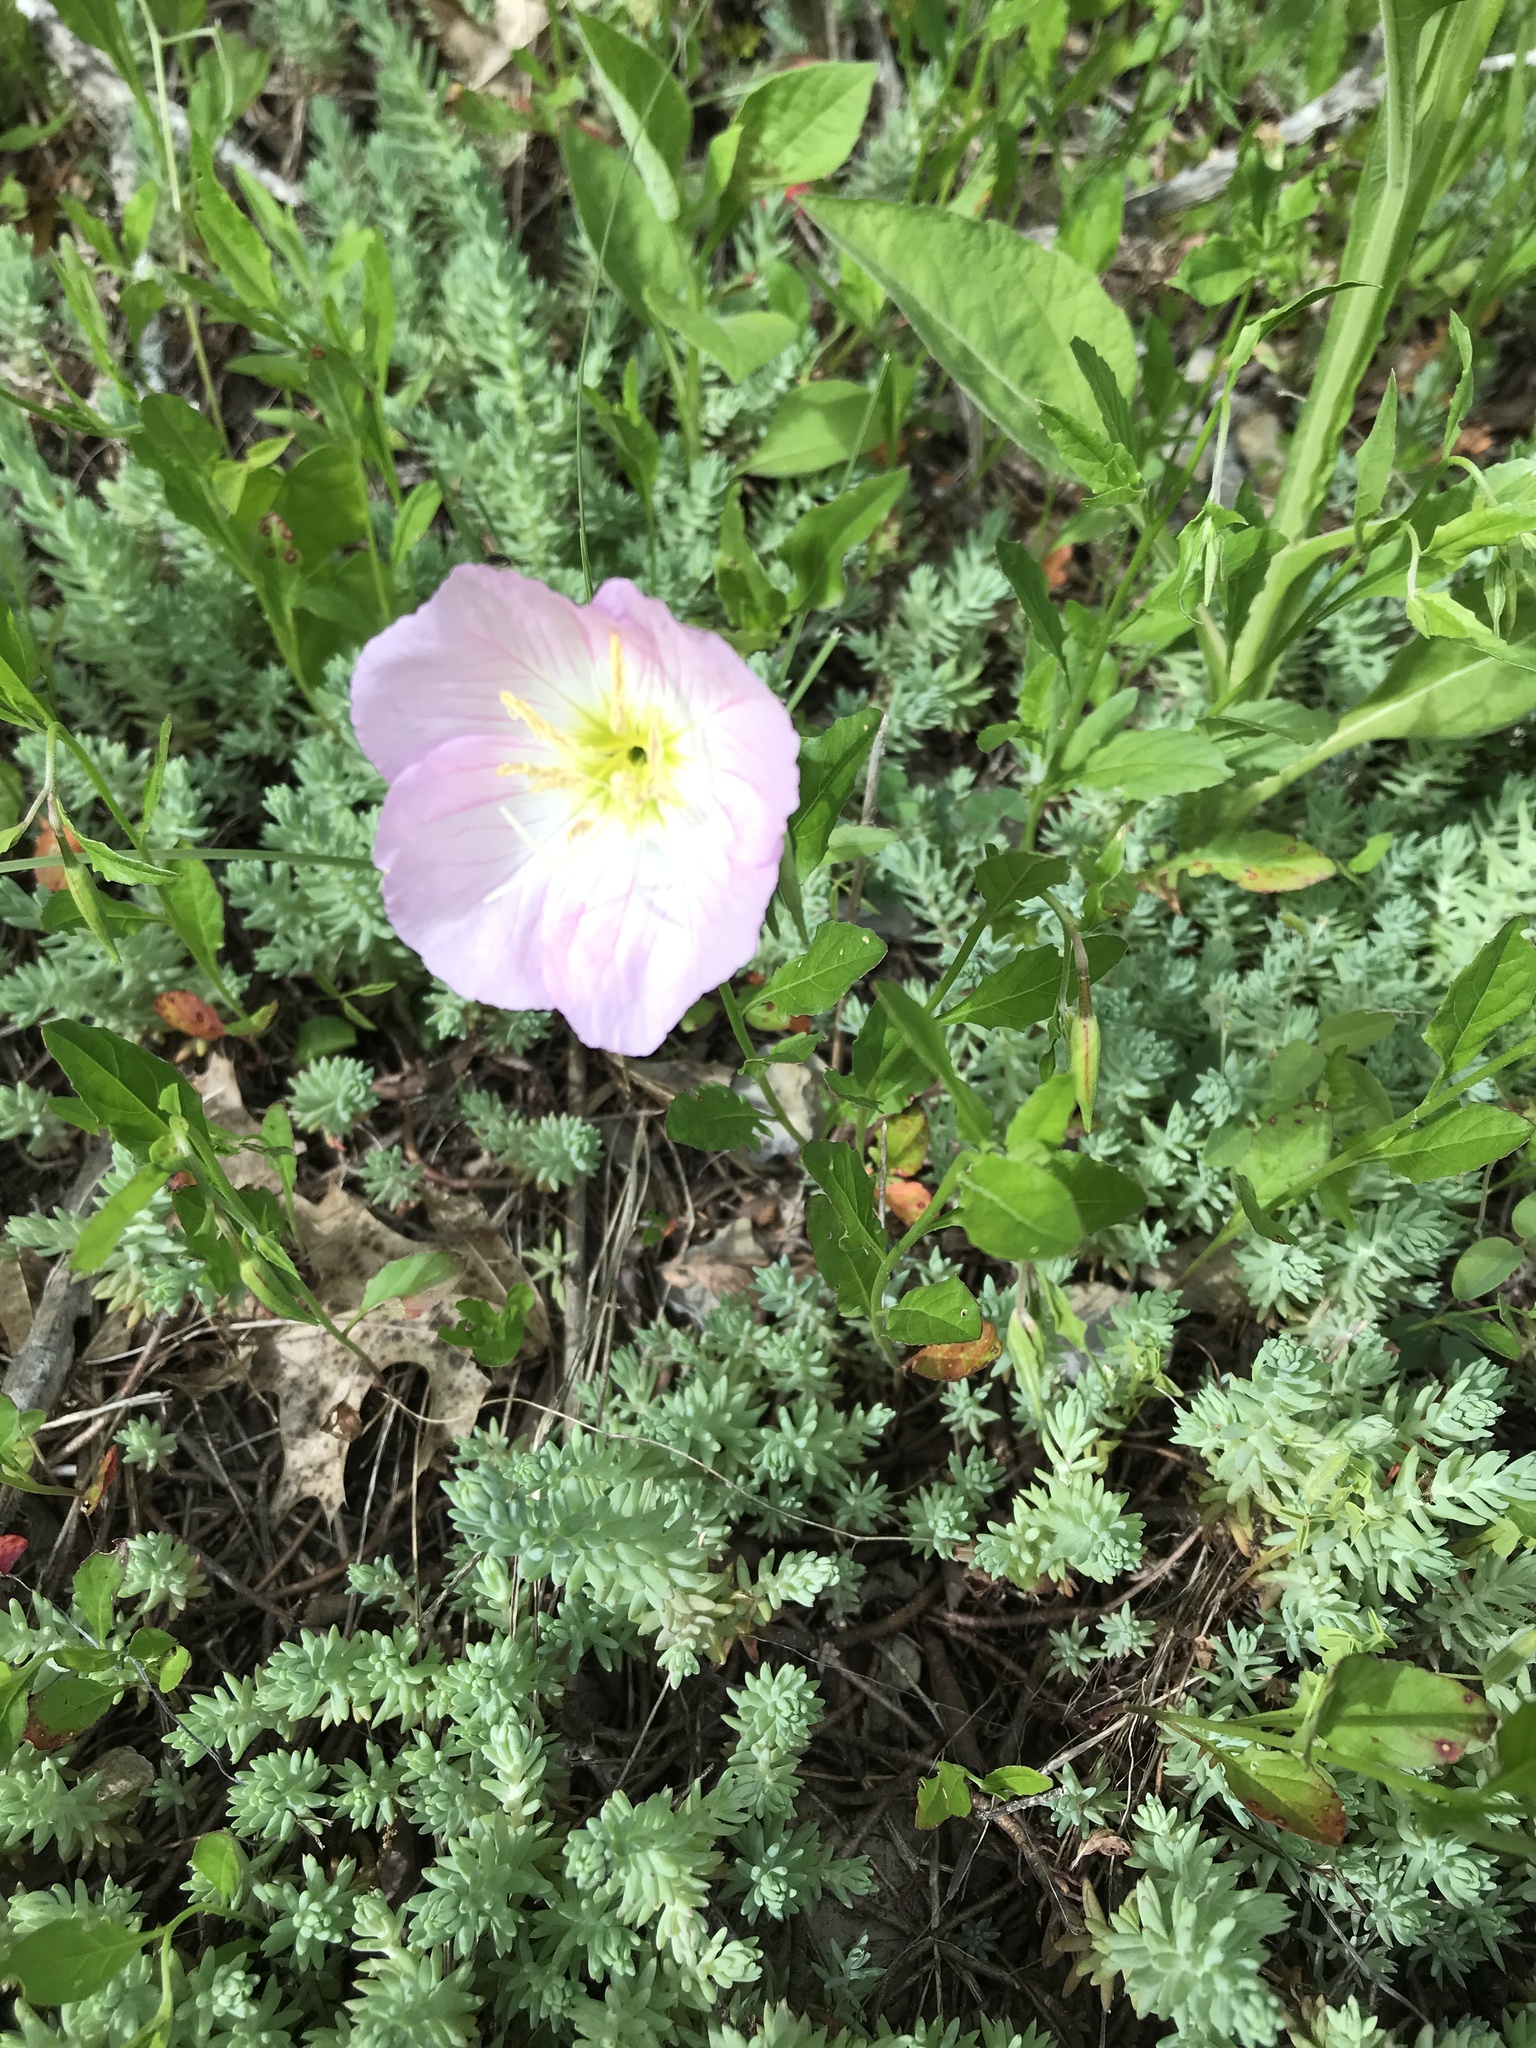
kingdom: Plantae
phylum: Tracheophyta
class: Magnoliopsida
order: Myrtales
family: Onagraceae
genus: Oenothera
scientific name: Oenothera speciosa
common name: White evening-primrose
